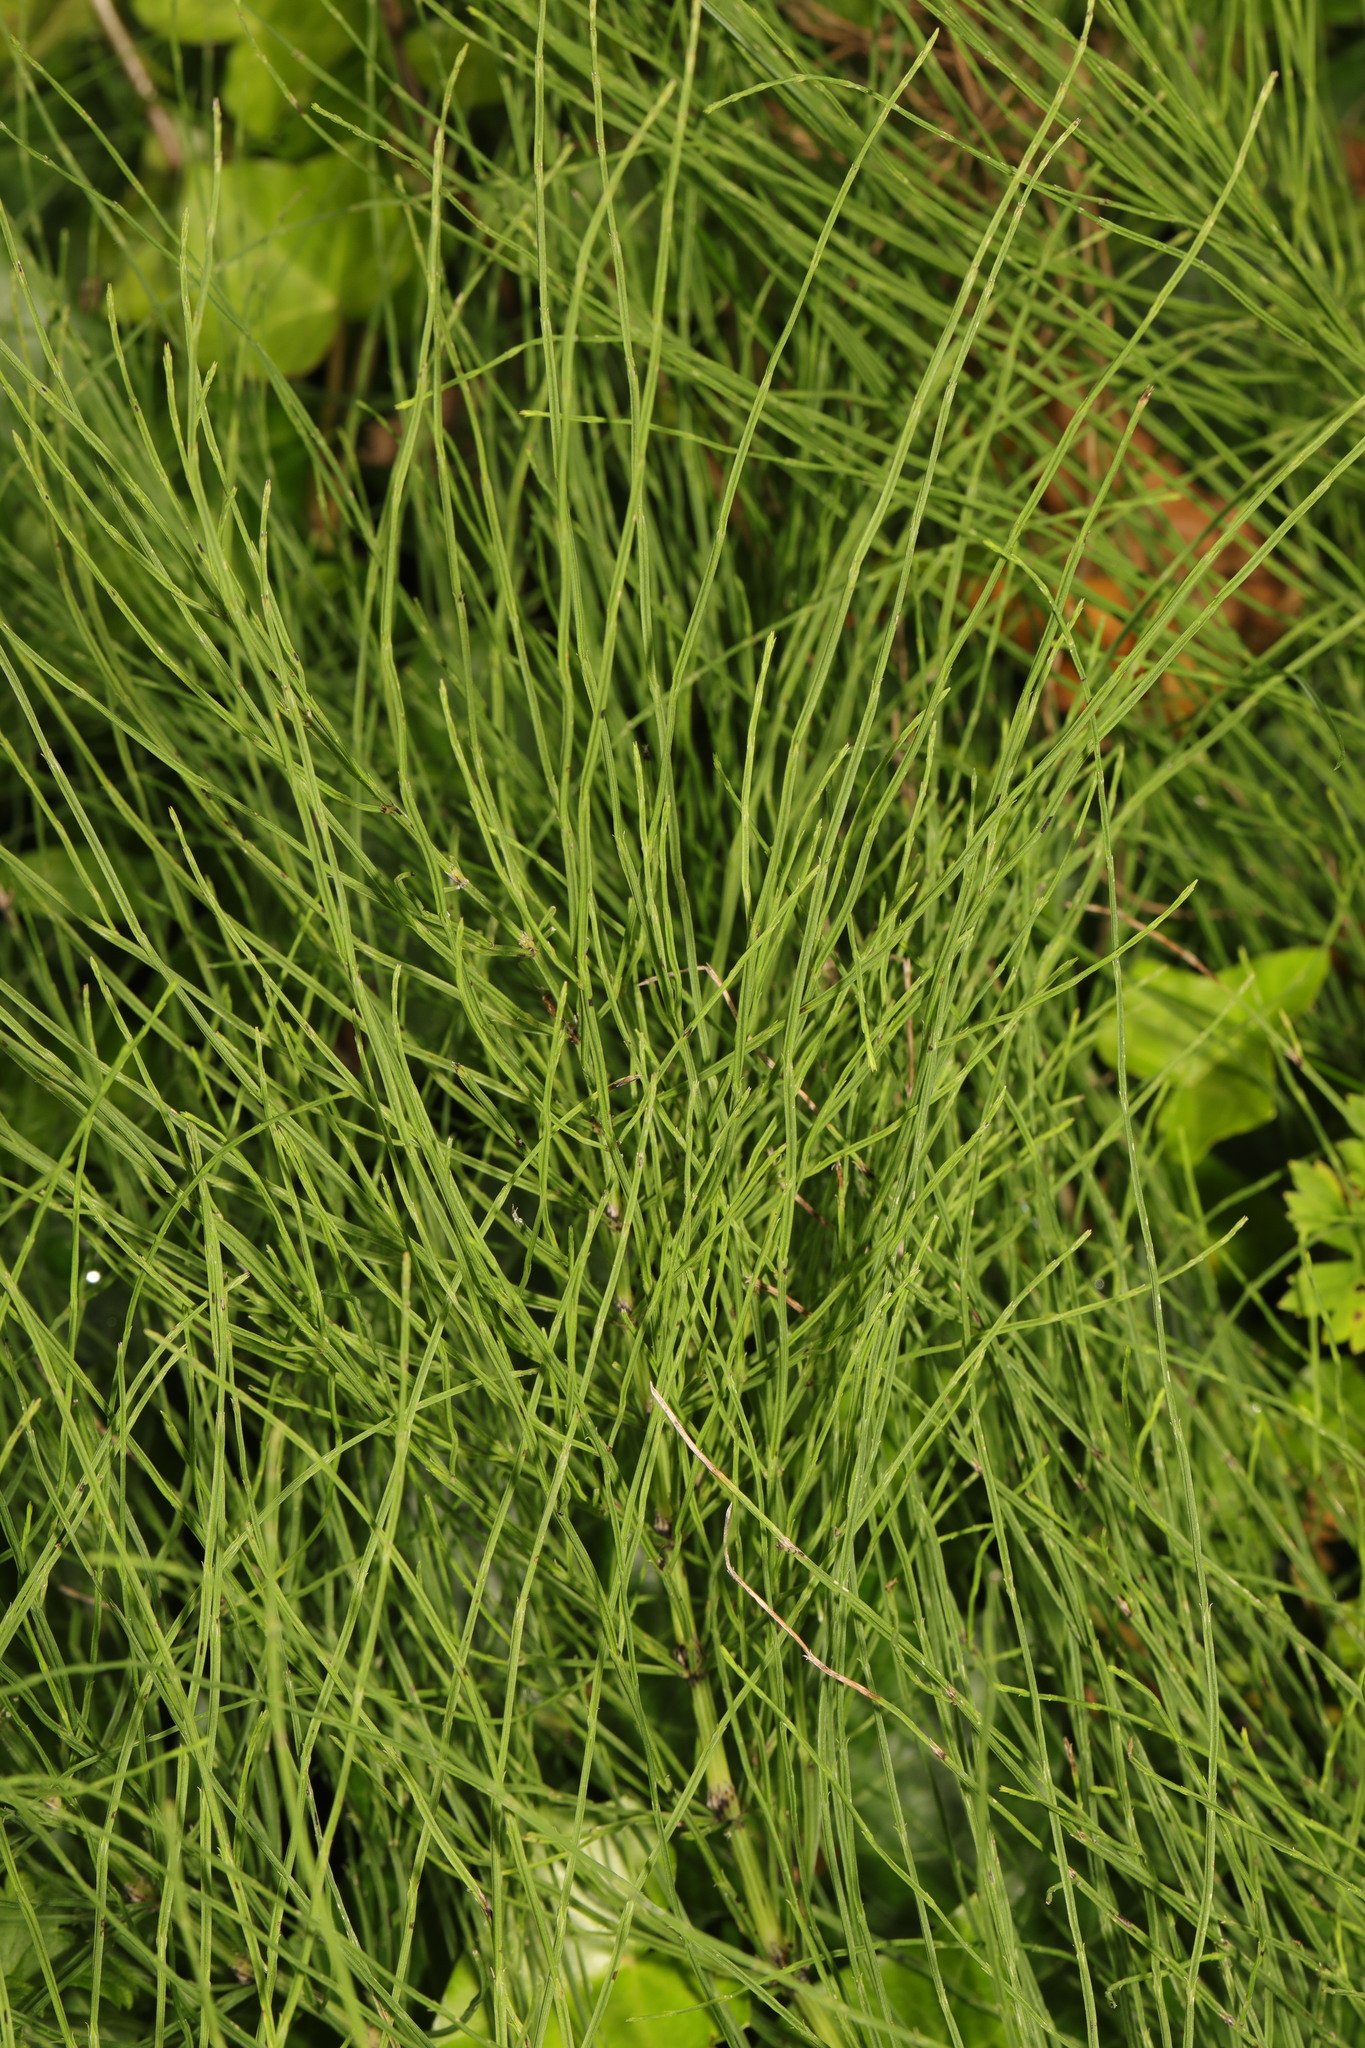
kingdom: Plantae
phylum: Tracheophyta
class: Polypodiopsida
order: Equisetales
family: Equisetaceae
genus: Equisetum
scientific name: Equisetum arvense
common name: Field horsetail
